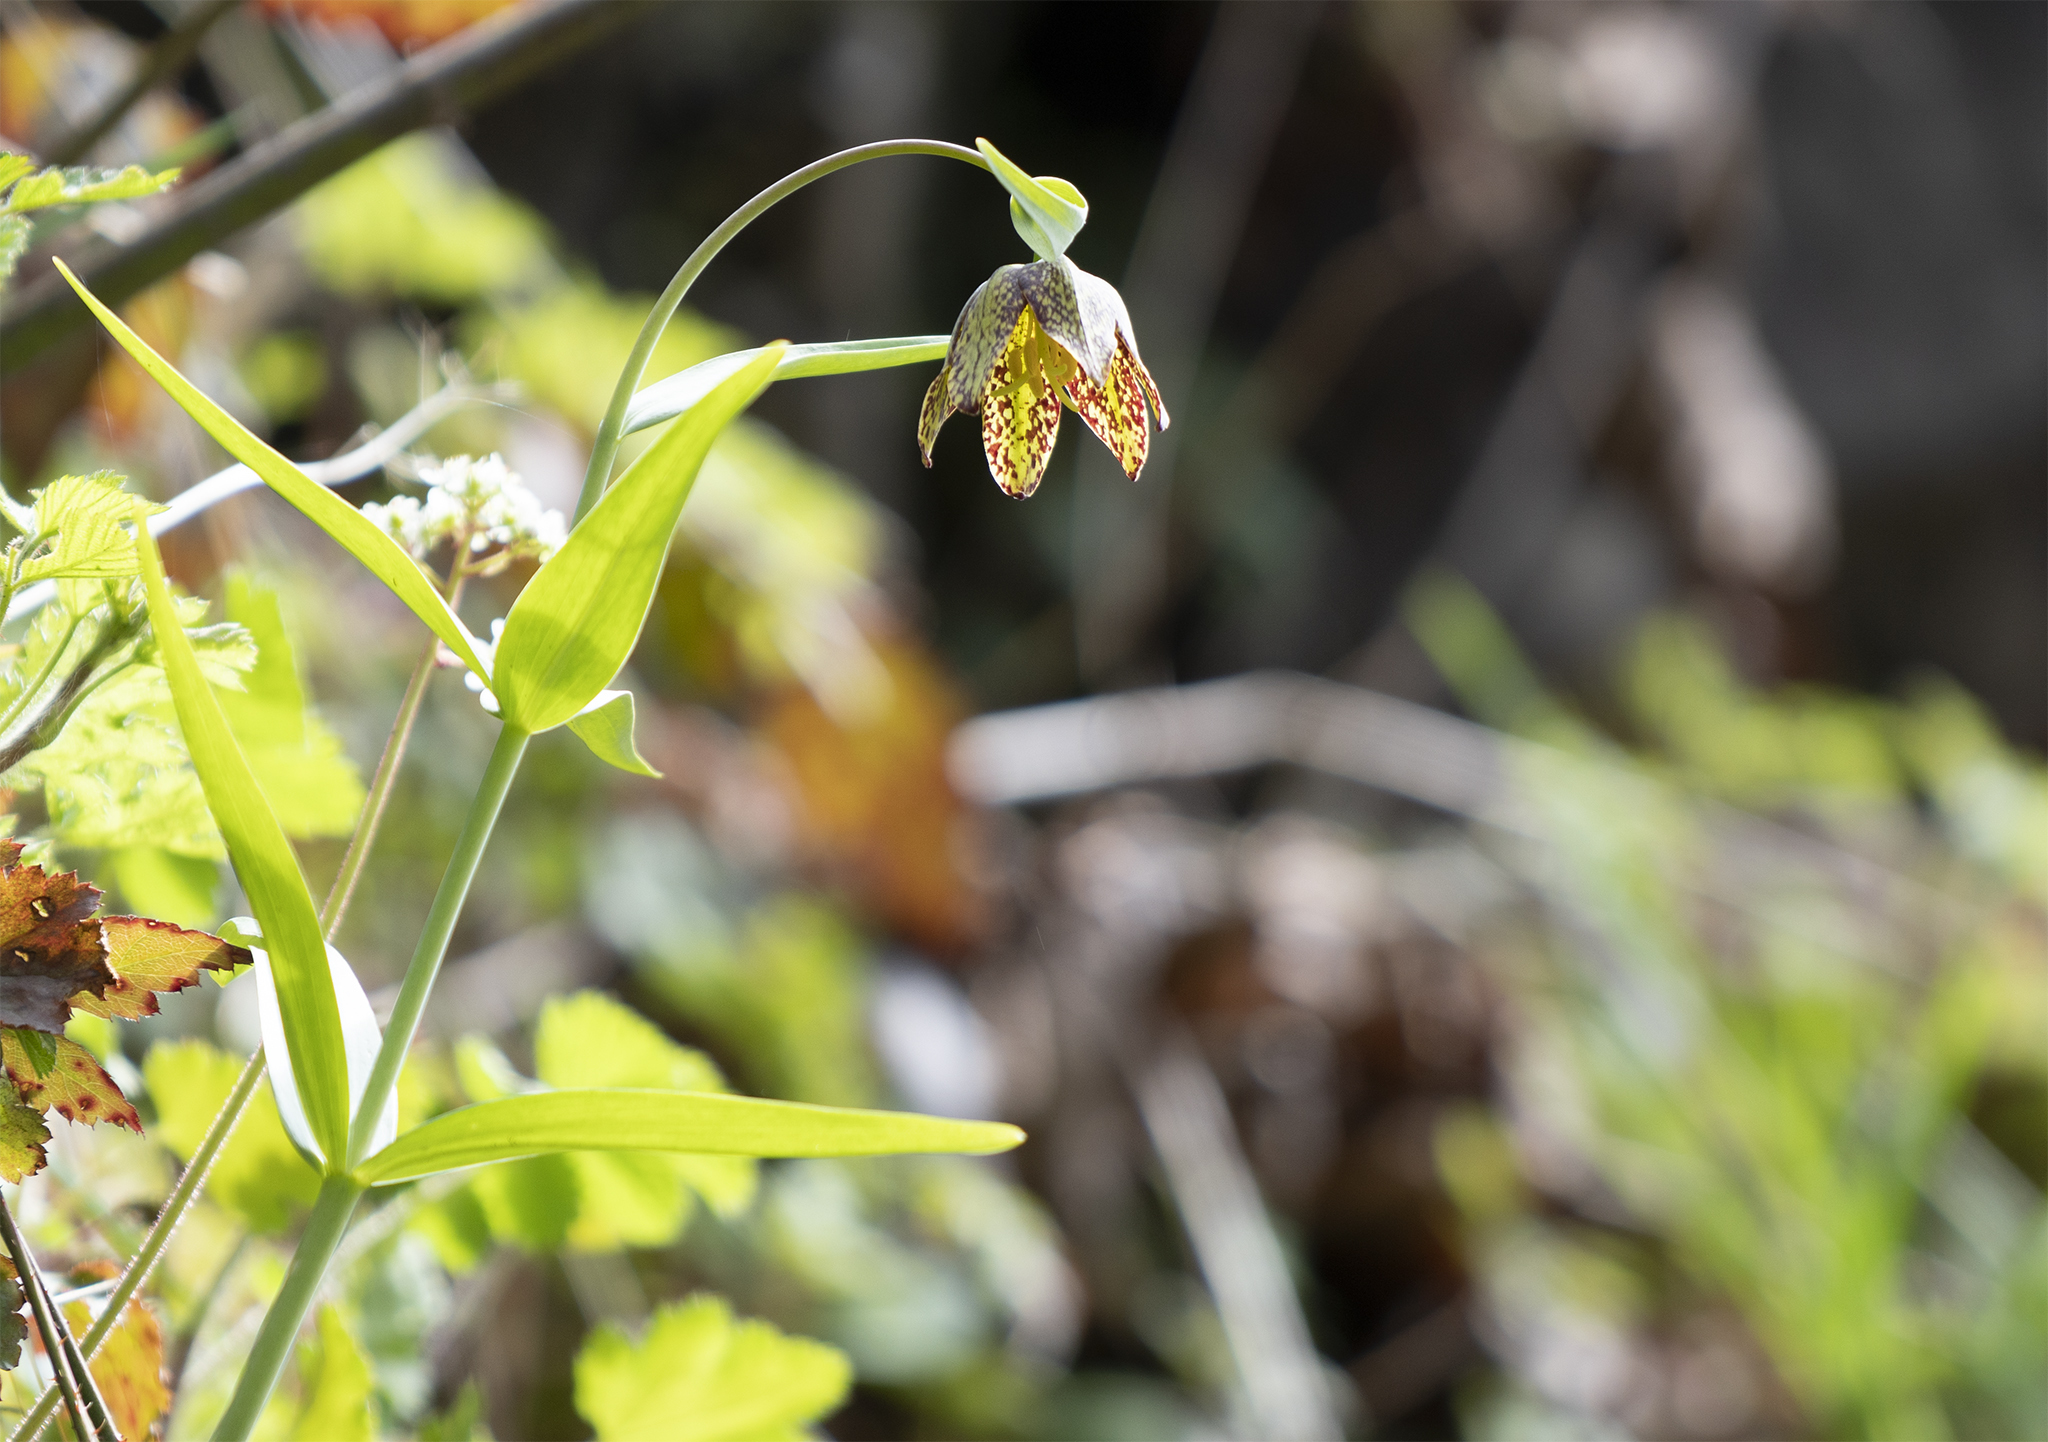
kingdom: Plantae
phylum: Tracheophyta
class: Liliopsida
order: Liliales
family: Liliaceae
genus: Fritillaria
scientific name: Fritillaria affinis
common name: Ojai fritillary
